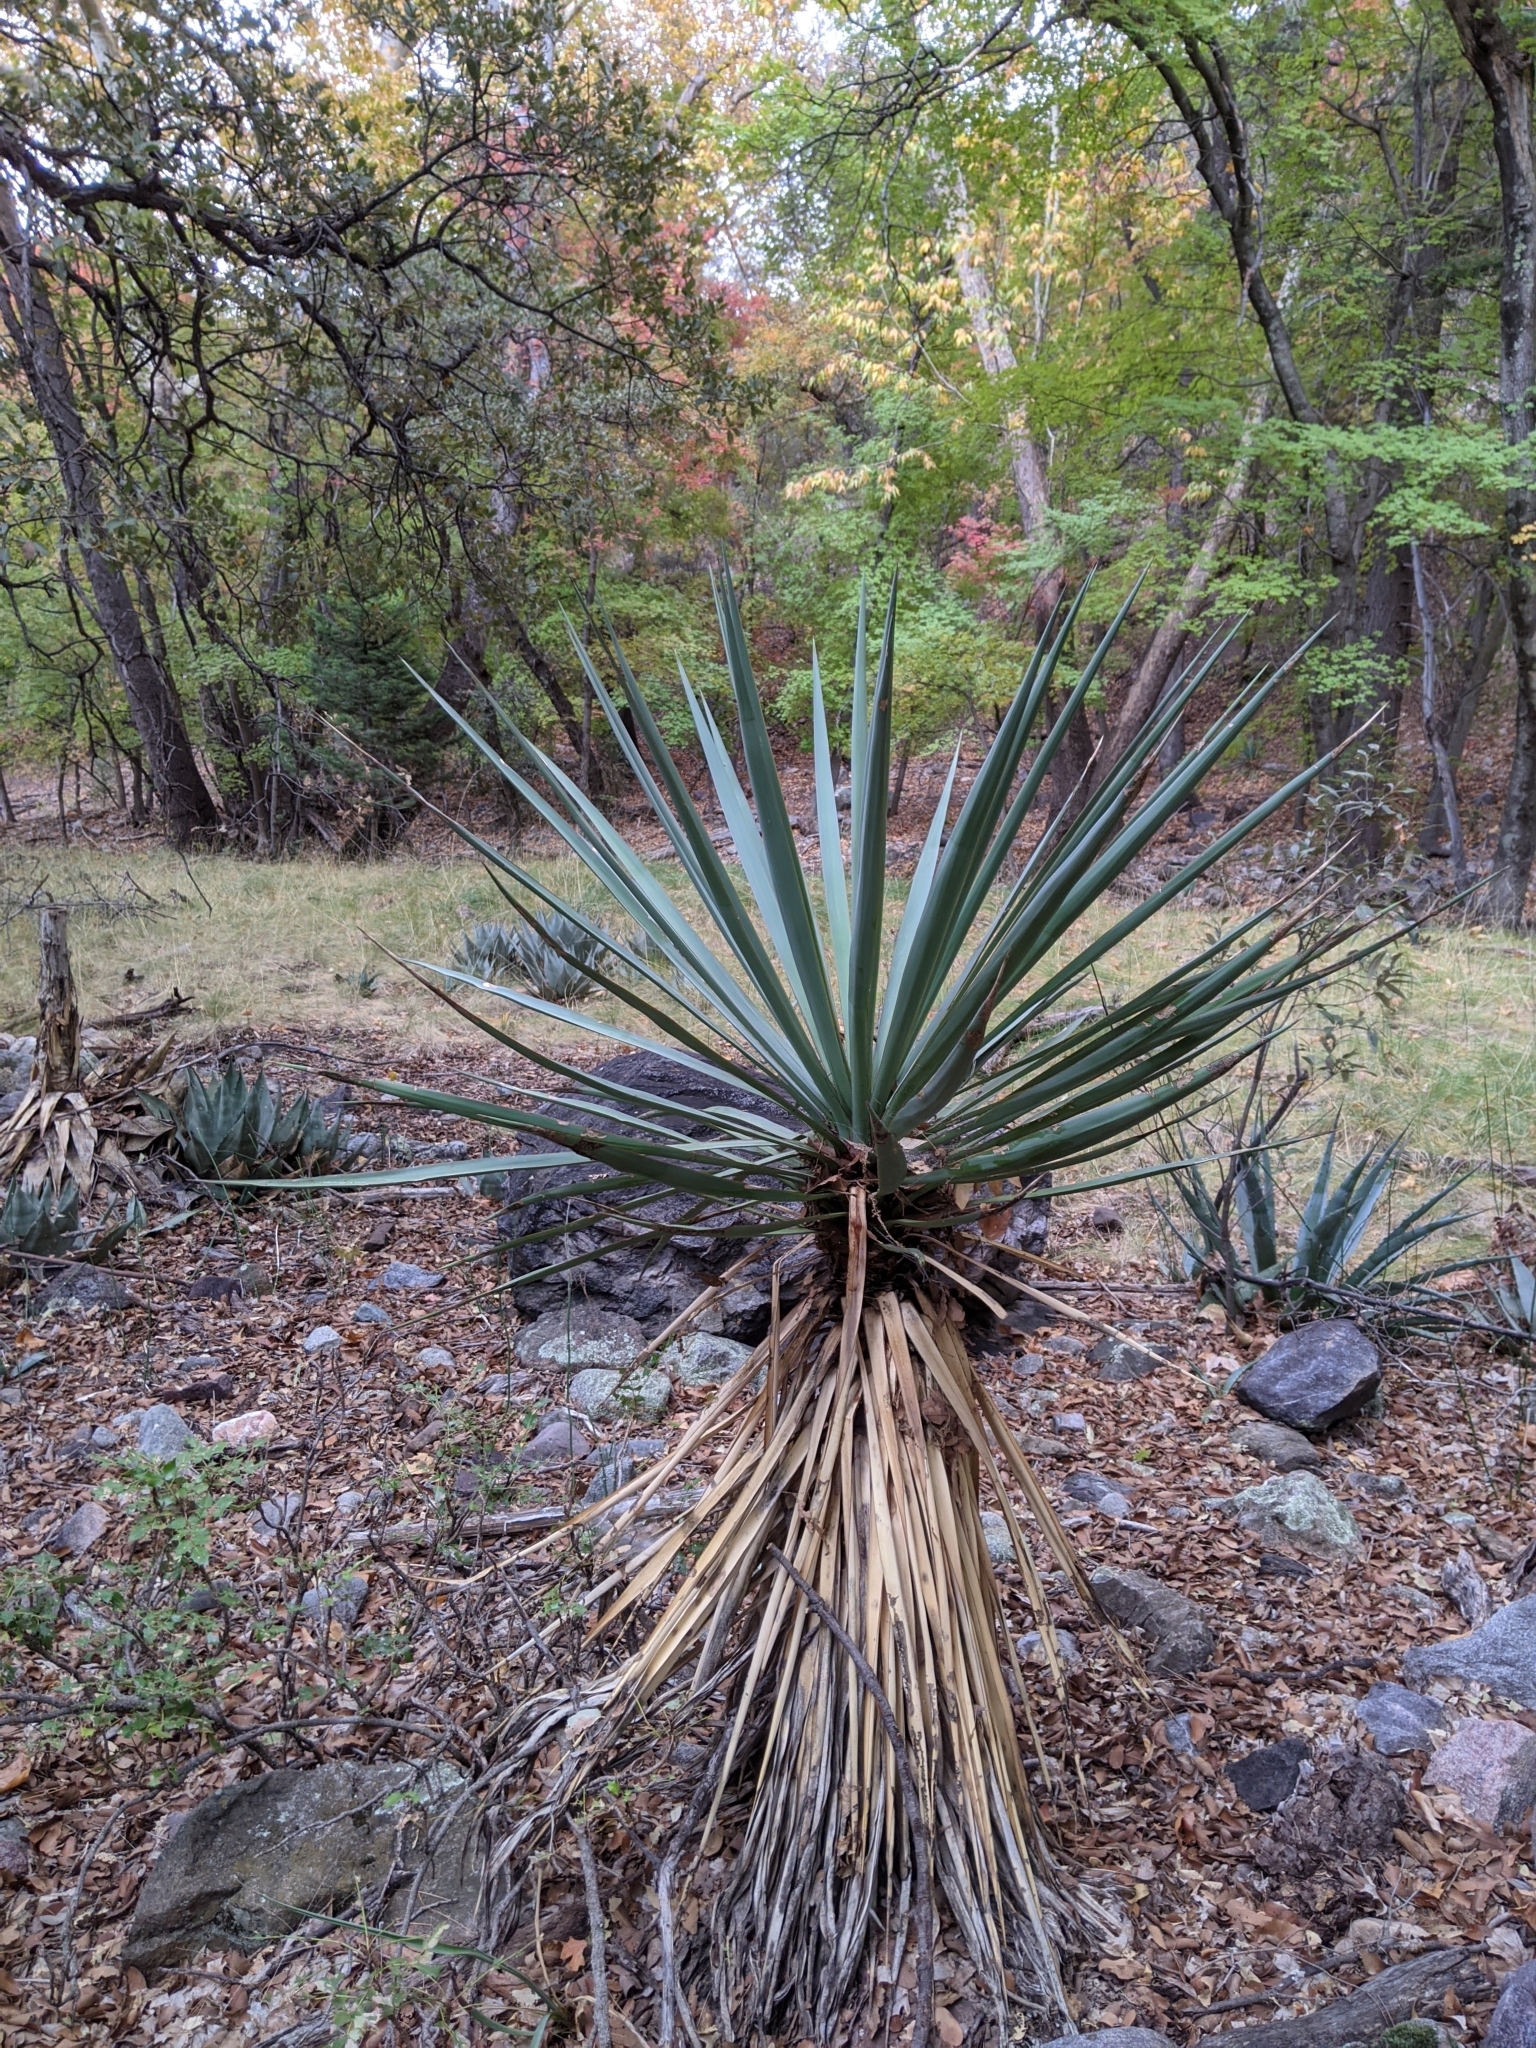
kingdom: Plantae
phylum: Tracheophyta
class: Liliopsida
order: Asparagales
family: Asparagaceae
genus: Yucca
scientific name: Yucca madrensis
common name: Hoary yucca
